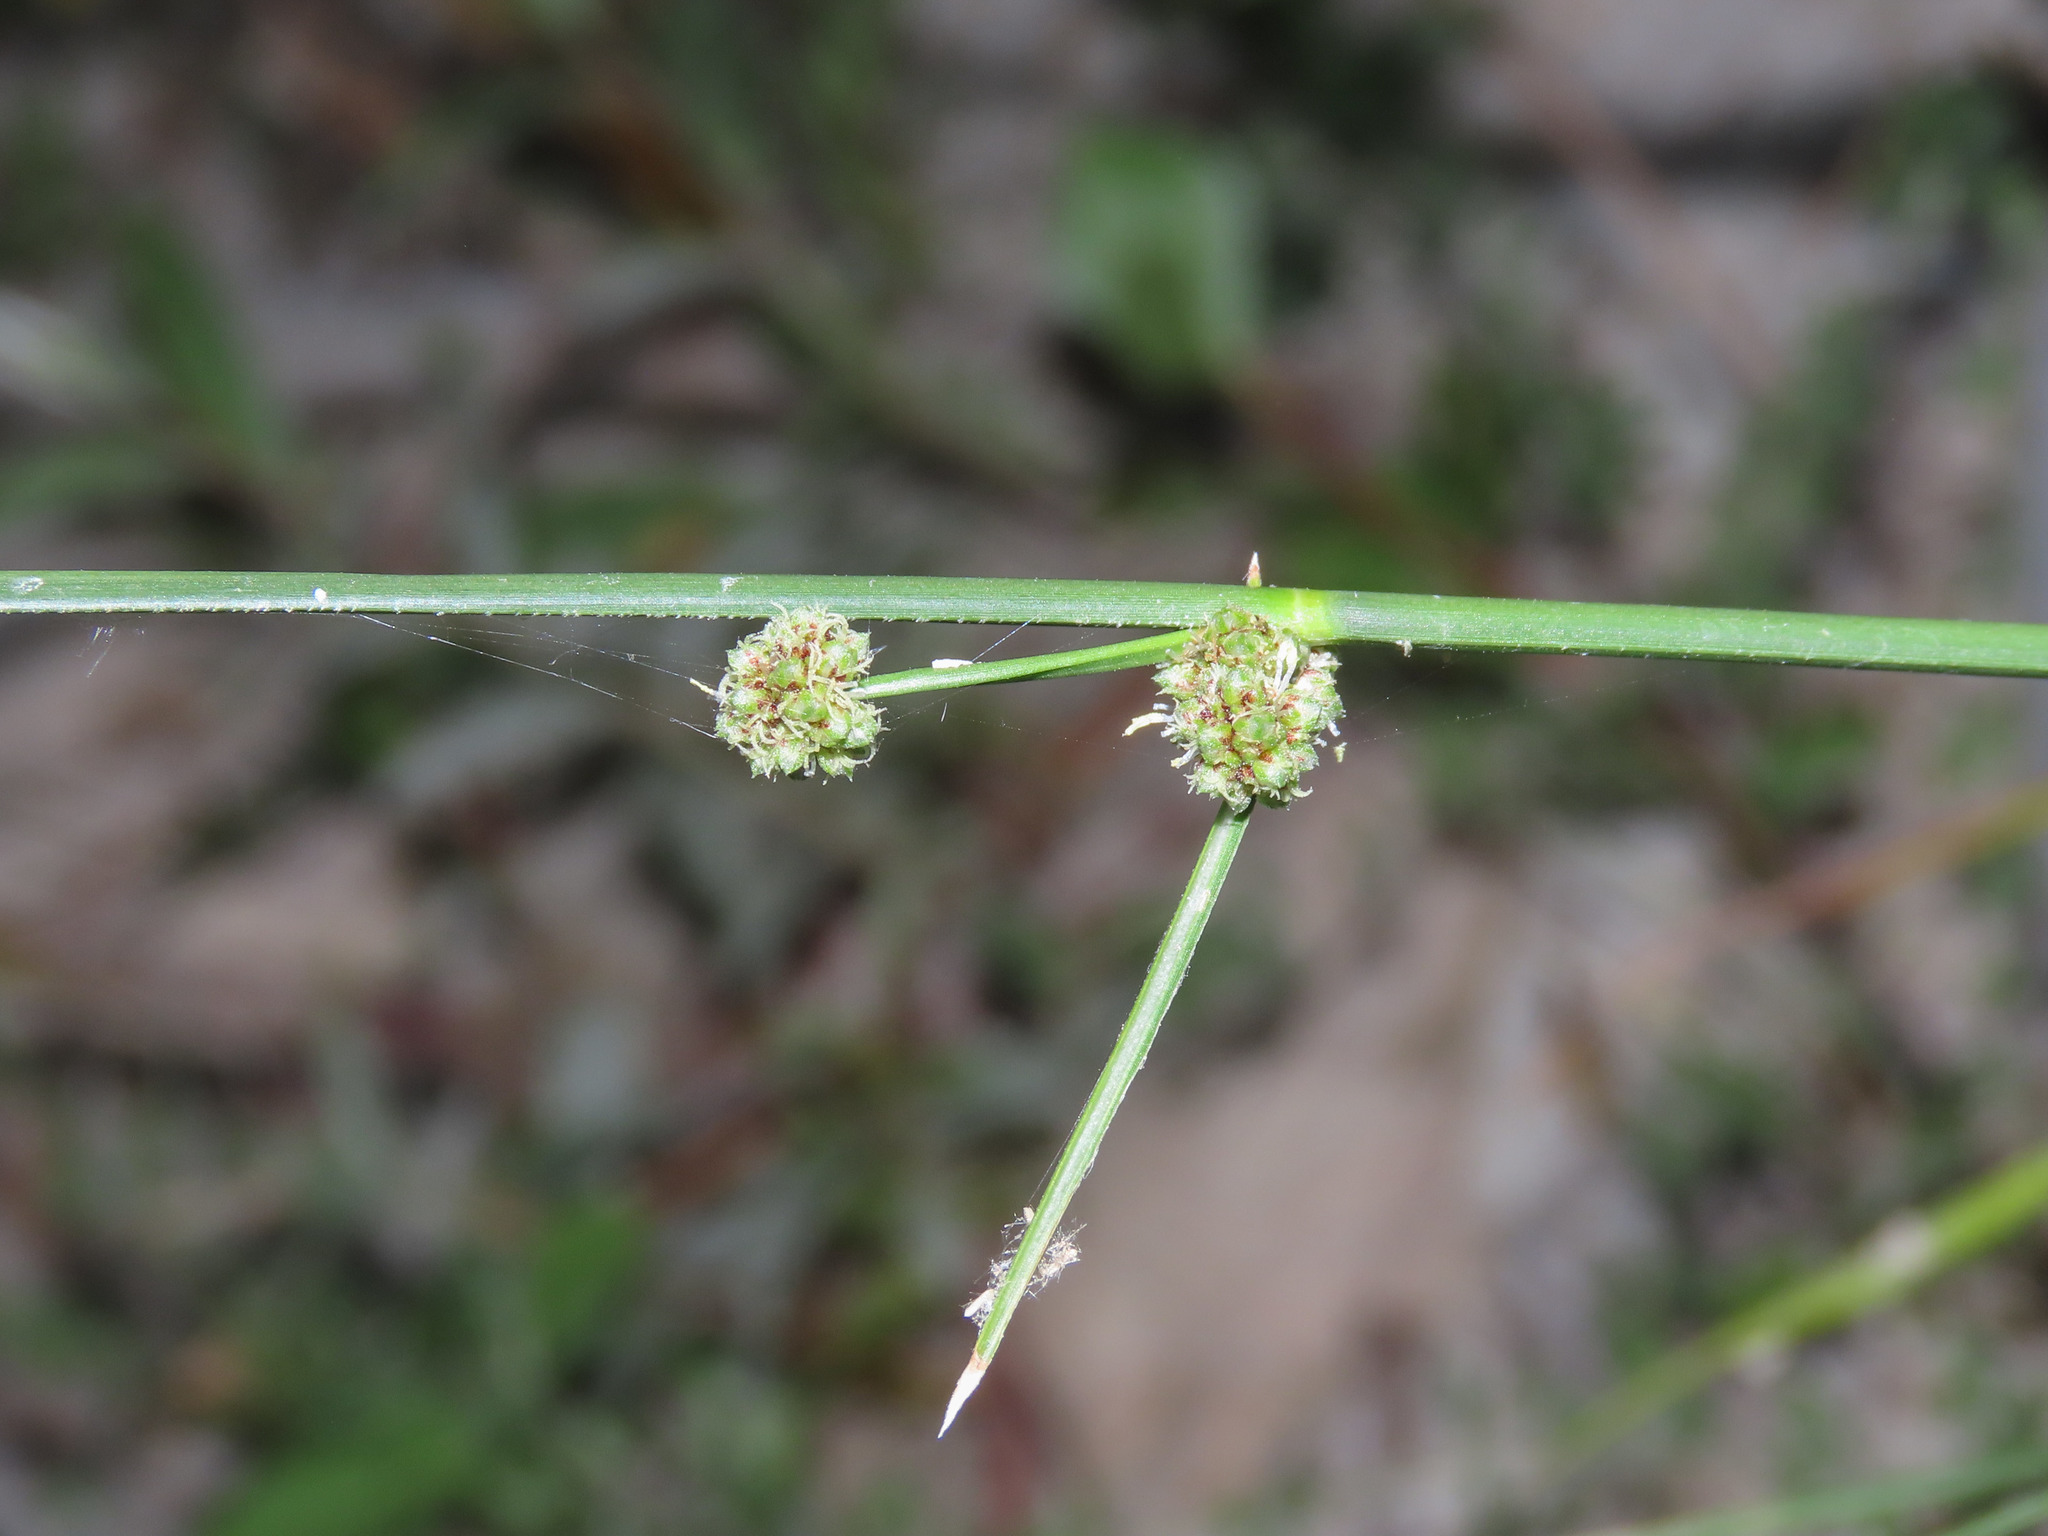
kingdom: Plantae
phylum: Tracheophyta
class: Liliopsida
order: Poales
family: Cyperaceae
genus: Scirpoides
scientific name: Scirpoides holoschoenus
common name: Round-headed club-rush
